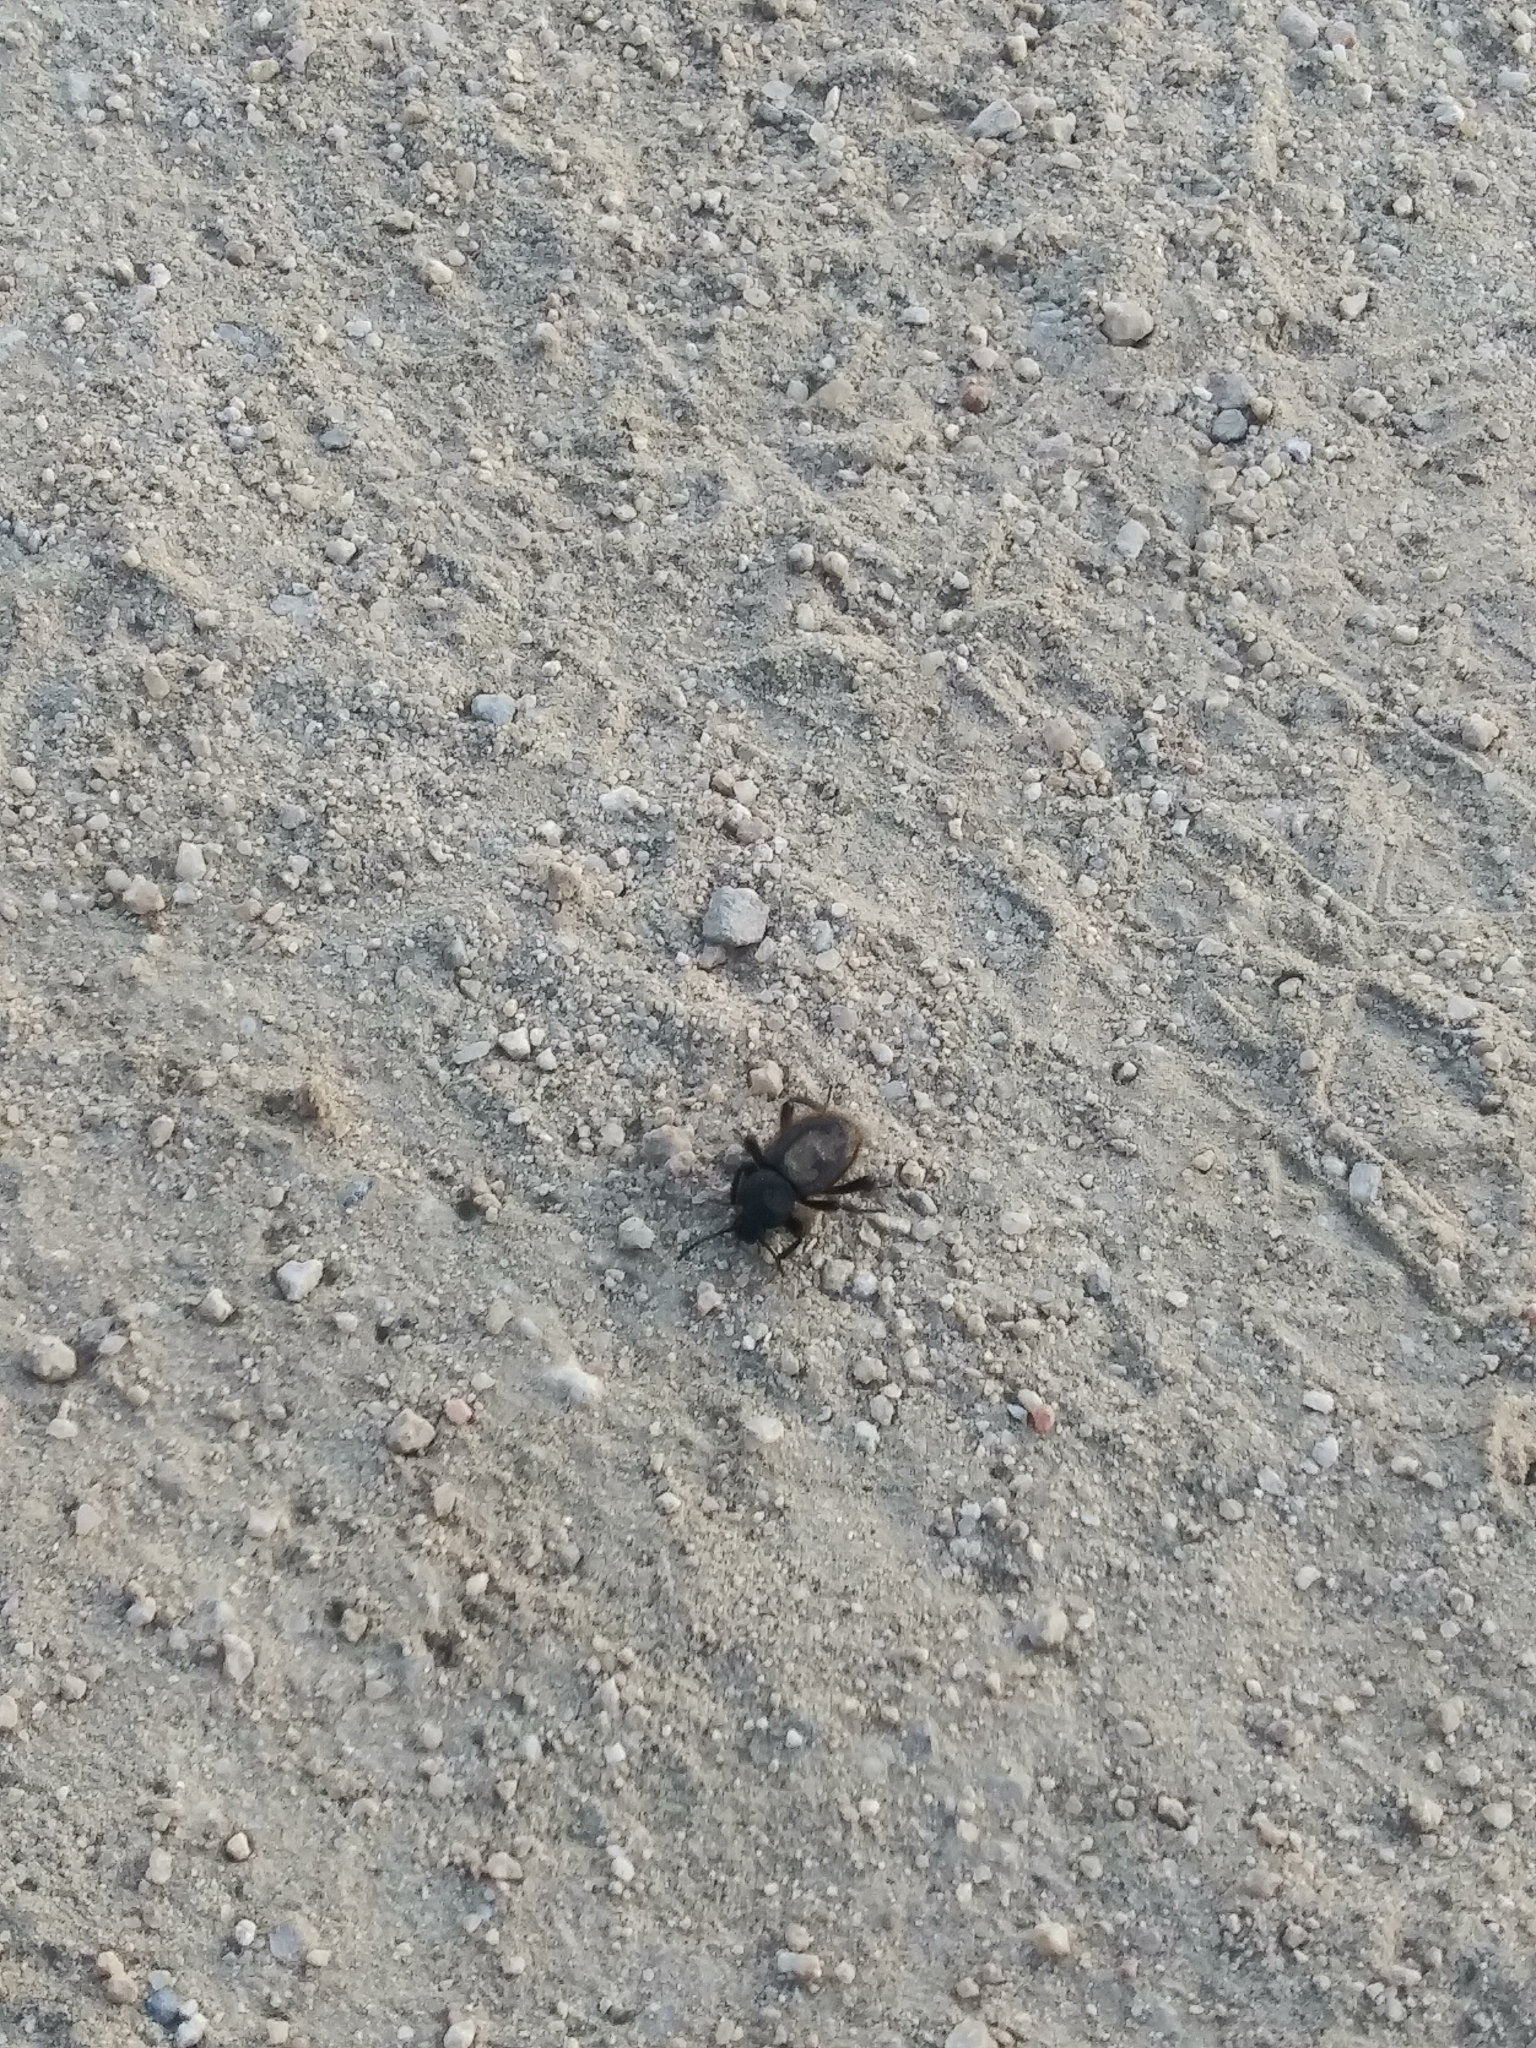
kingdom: Animalia
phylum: Arthropoda
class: Insecta
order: Coleoptera
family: Tenebrionidae
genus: Eleodes
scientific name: Eleodes osculans
